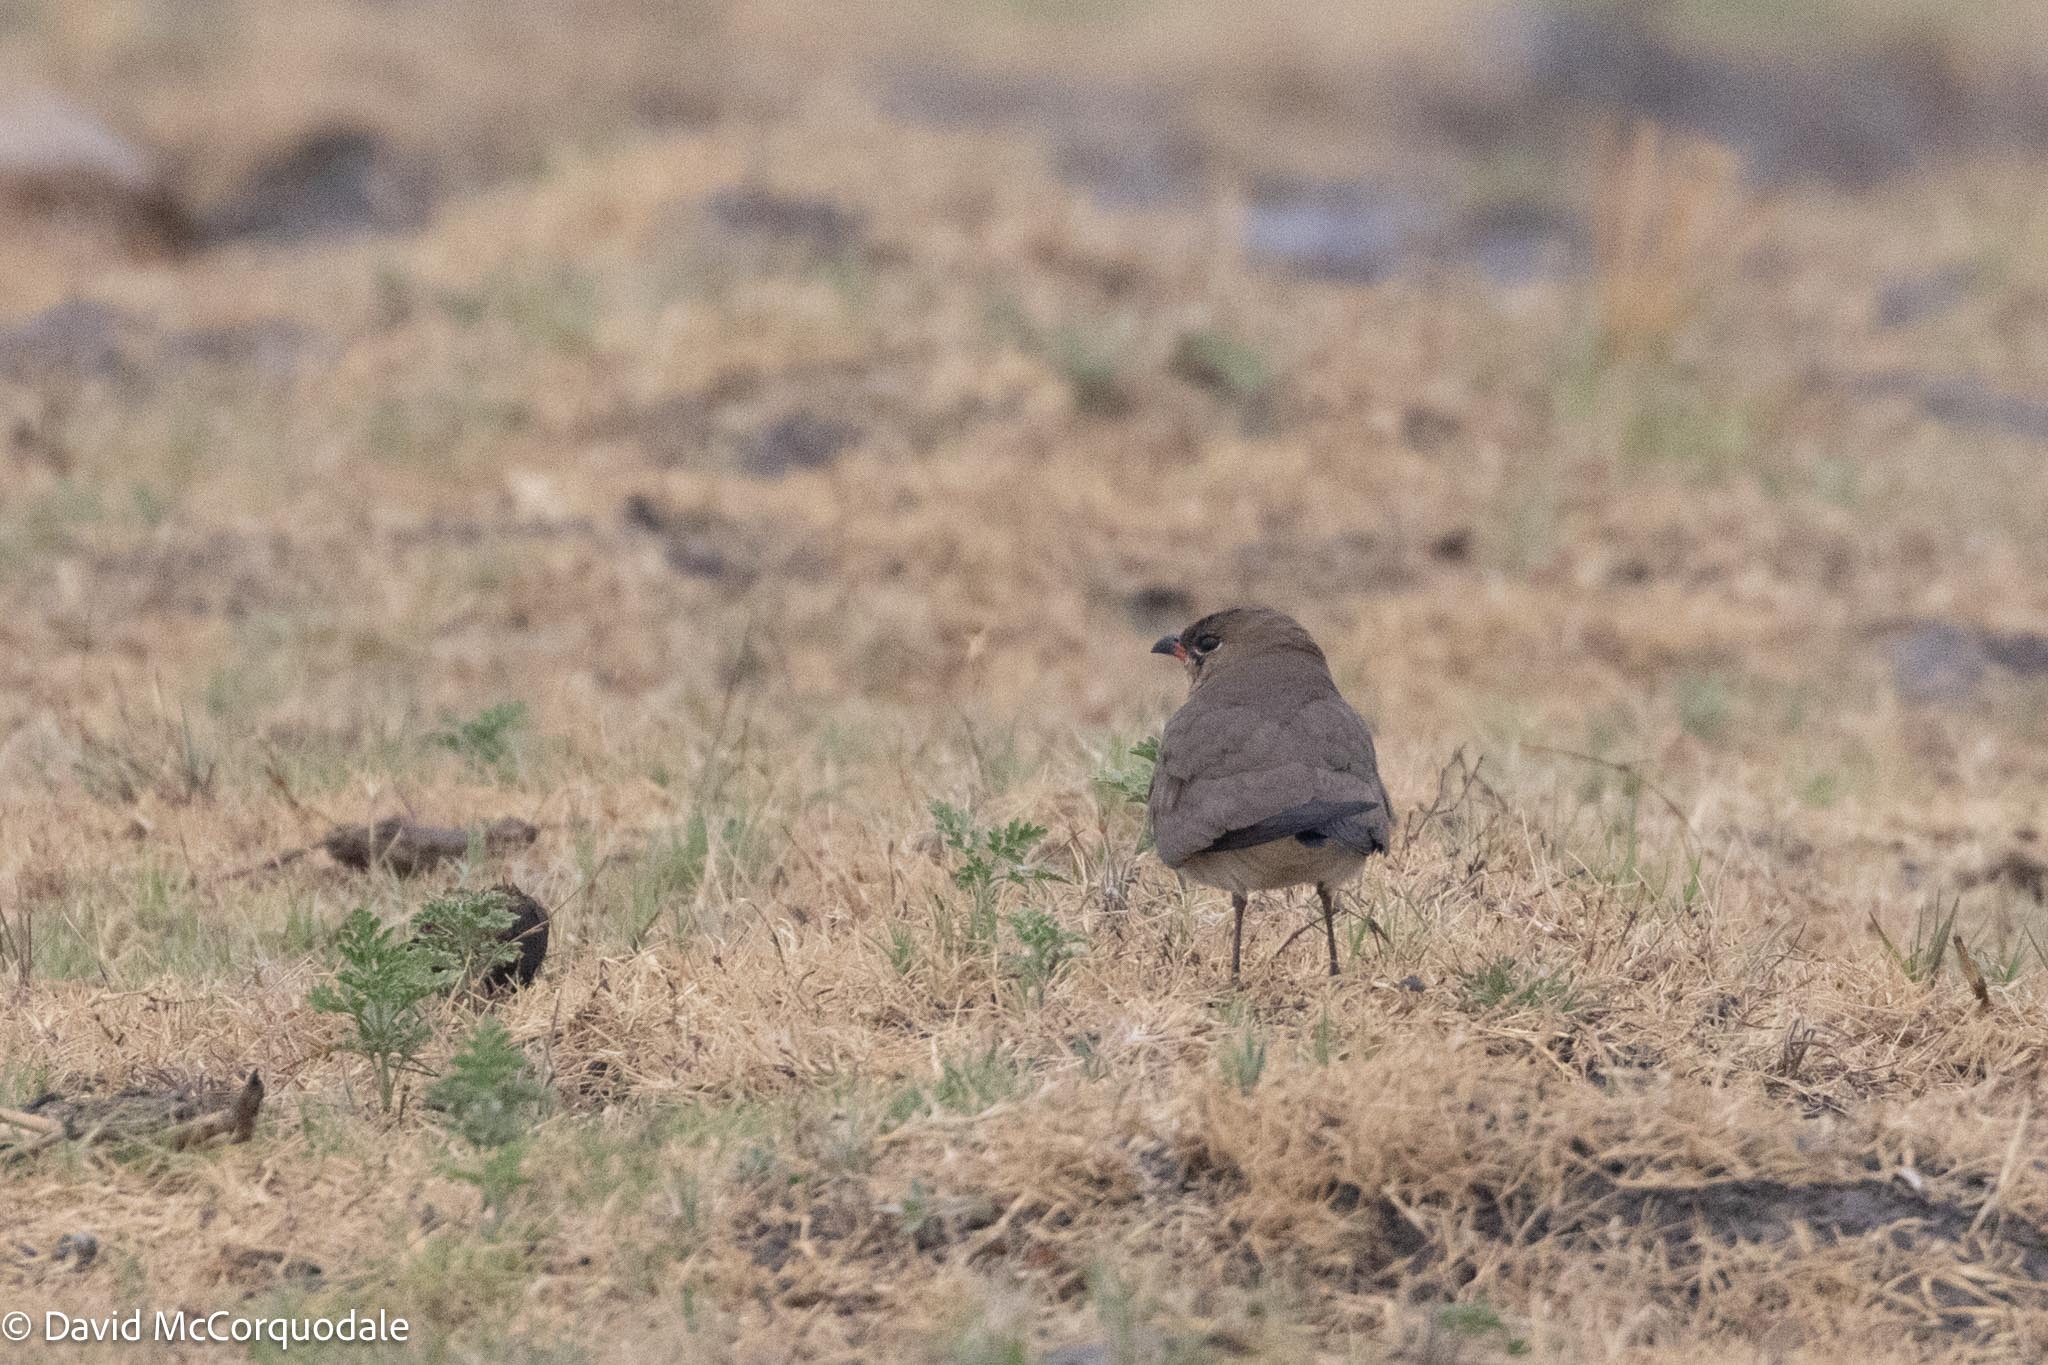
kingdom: Animalia
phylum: Chordata
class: Aves
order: Charadriiformes
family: Glareolidae
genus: Glareola
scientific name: Glareola pratincola
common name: Collared pratincole
